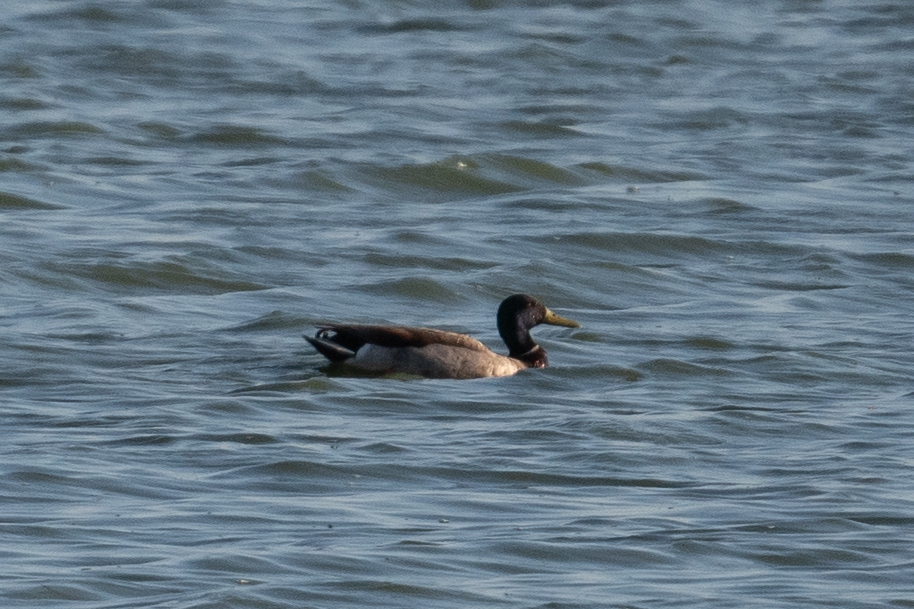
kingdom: Animalia
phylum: Chordata
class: Aves
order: Anseriformes
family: Anatidae
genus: Anas
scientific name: Anas platyrhynchos
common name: Mallard
